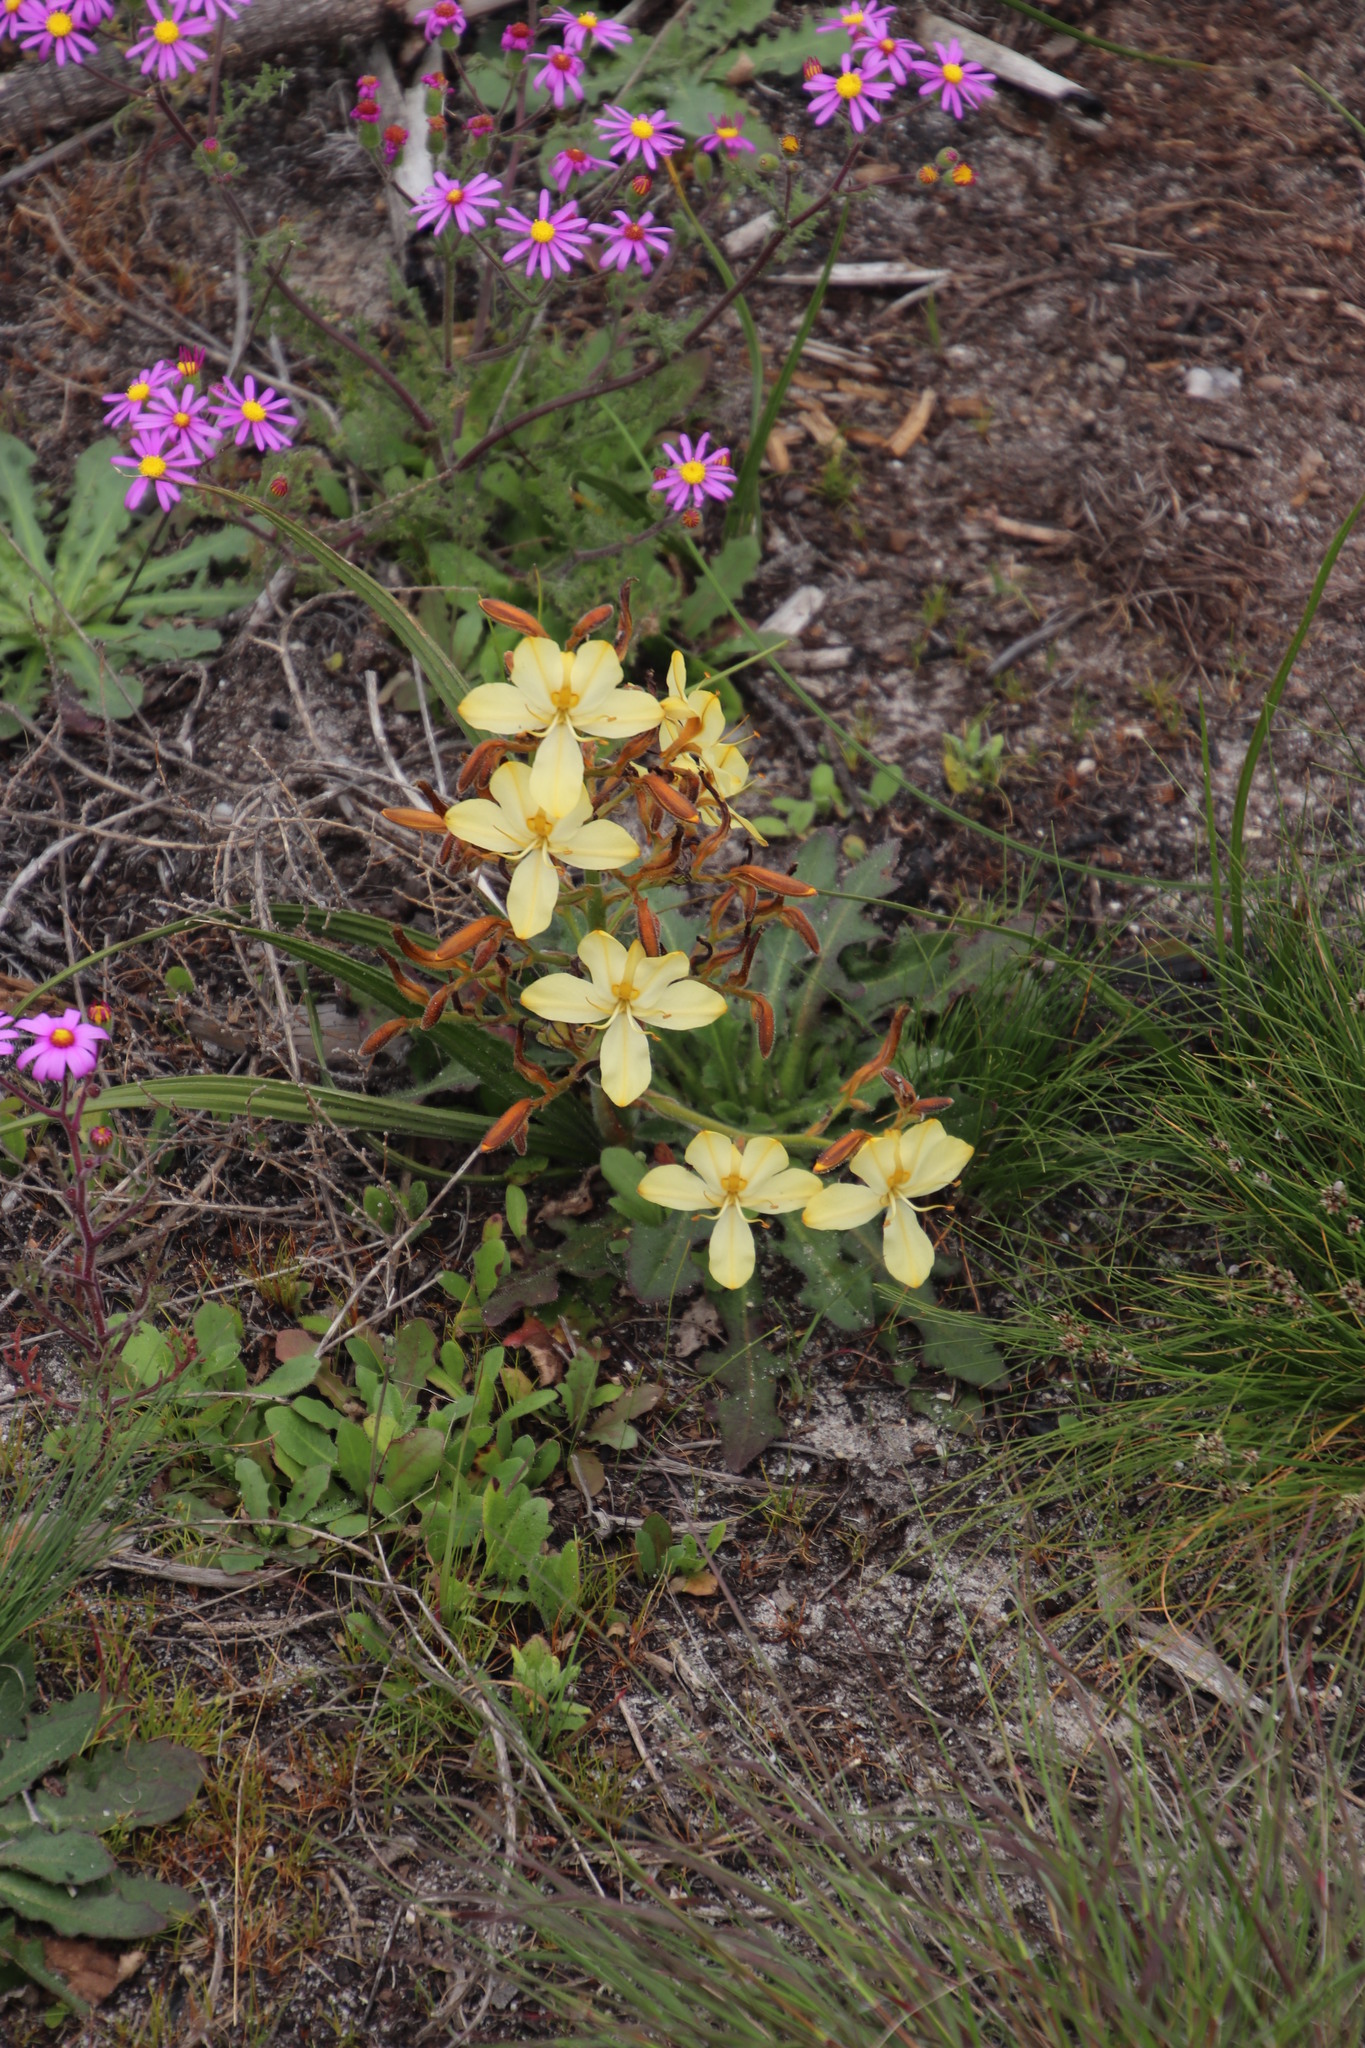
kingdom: Plantae
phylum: Tracheophyta
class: Liliopsida
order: Commelinales
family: Haemodoraceae
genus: Wachendorfia
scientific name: Wachendorfia paniculata
